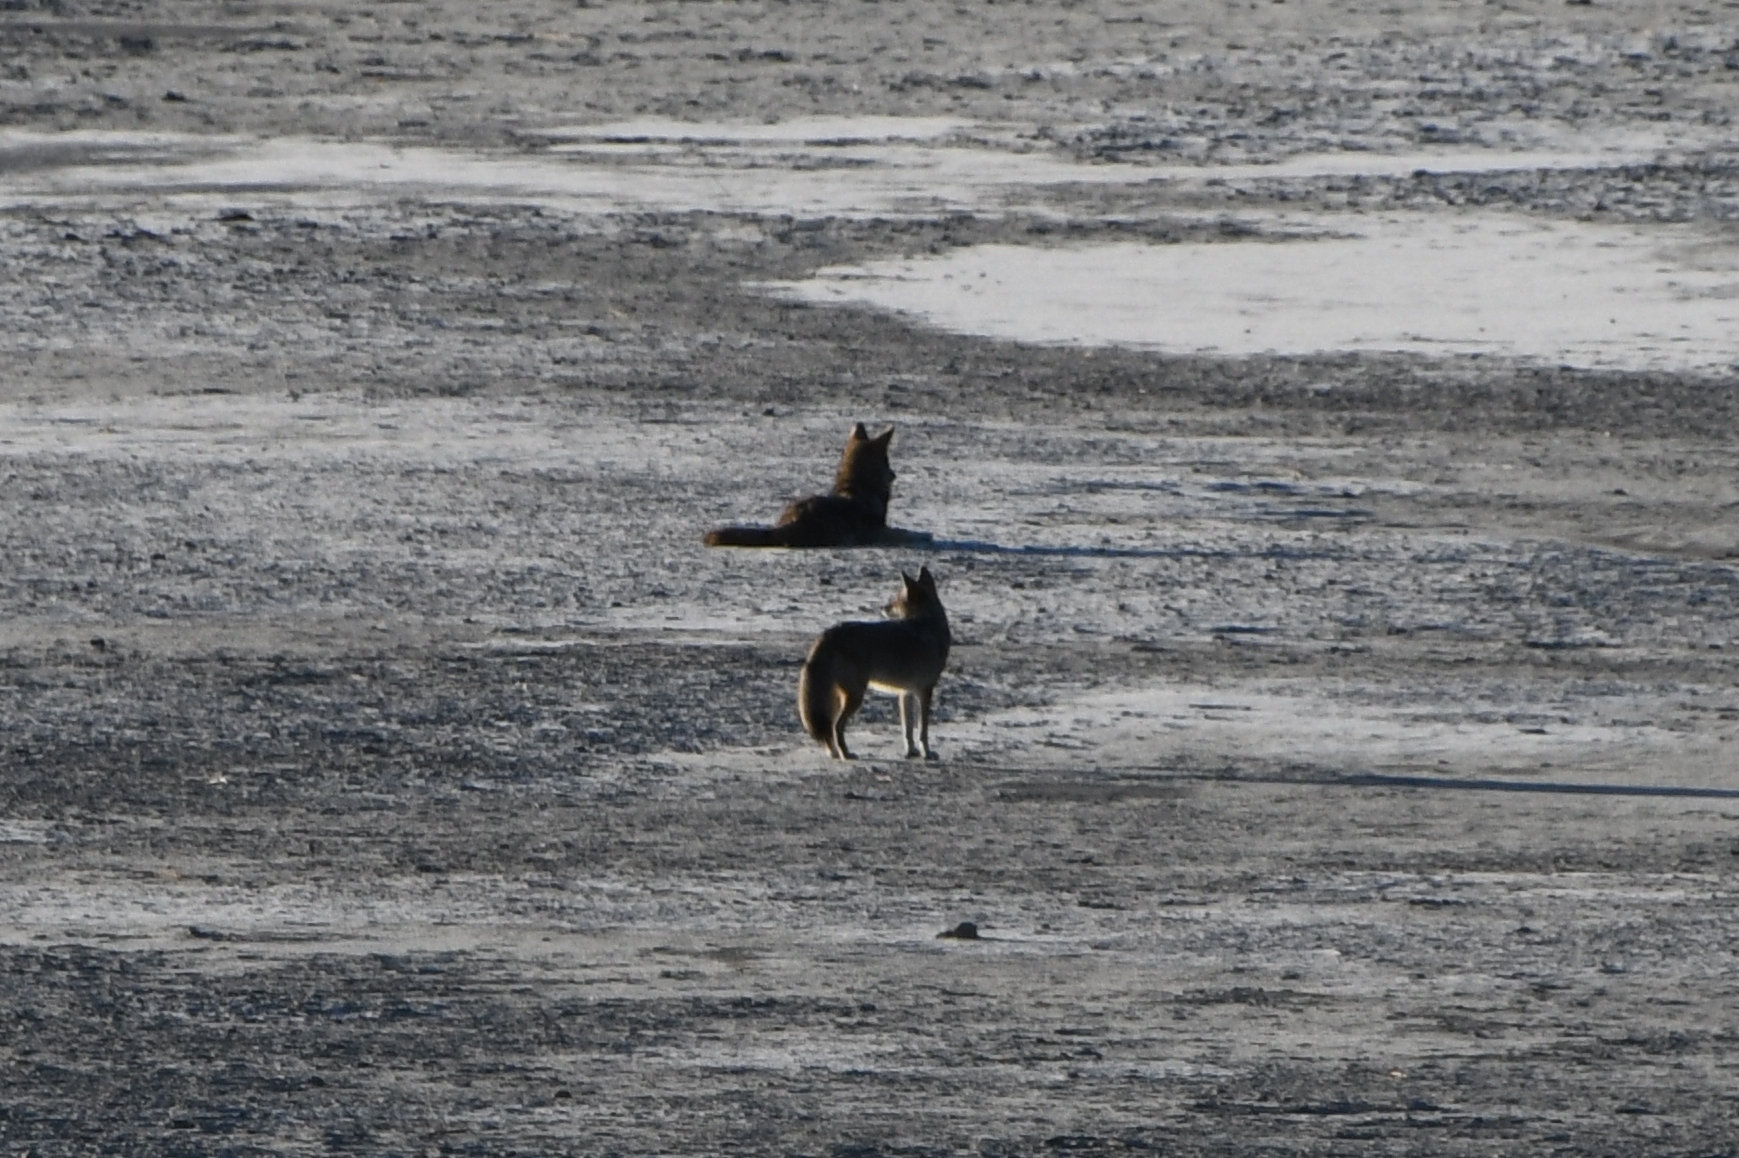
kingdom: Animalia
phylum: Chordata
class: Mammalia
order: Carnivora
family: Canidae
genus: Canis
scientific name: Canis latrans
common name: Coyote
